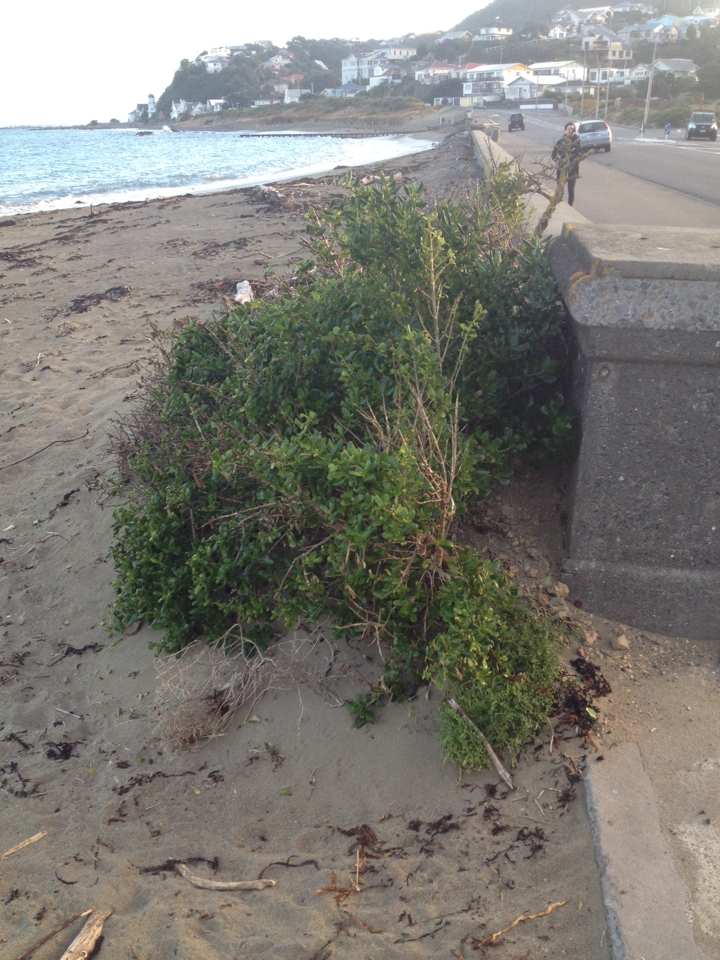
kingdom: Plantae
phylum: Tracheophyta
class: Magnoliopsida
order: Gentianales
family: Rubiaceae
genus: Coprosma
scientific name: Coprosma repens
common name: Tree bedstraw
